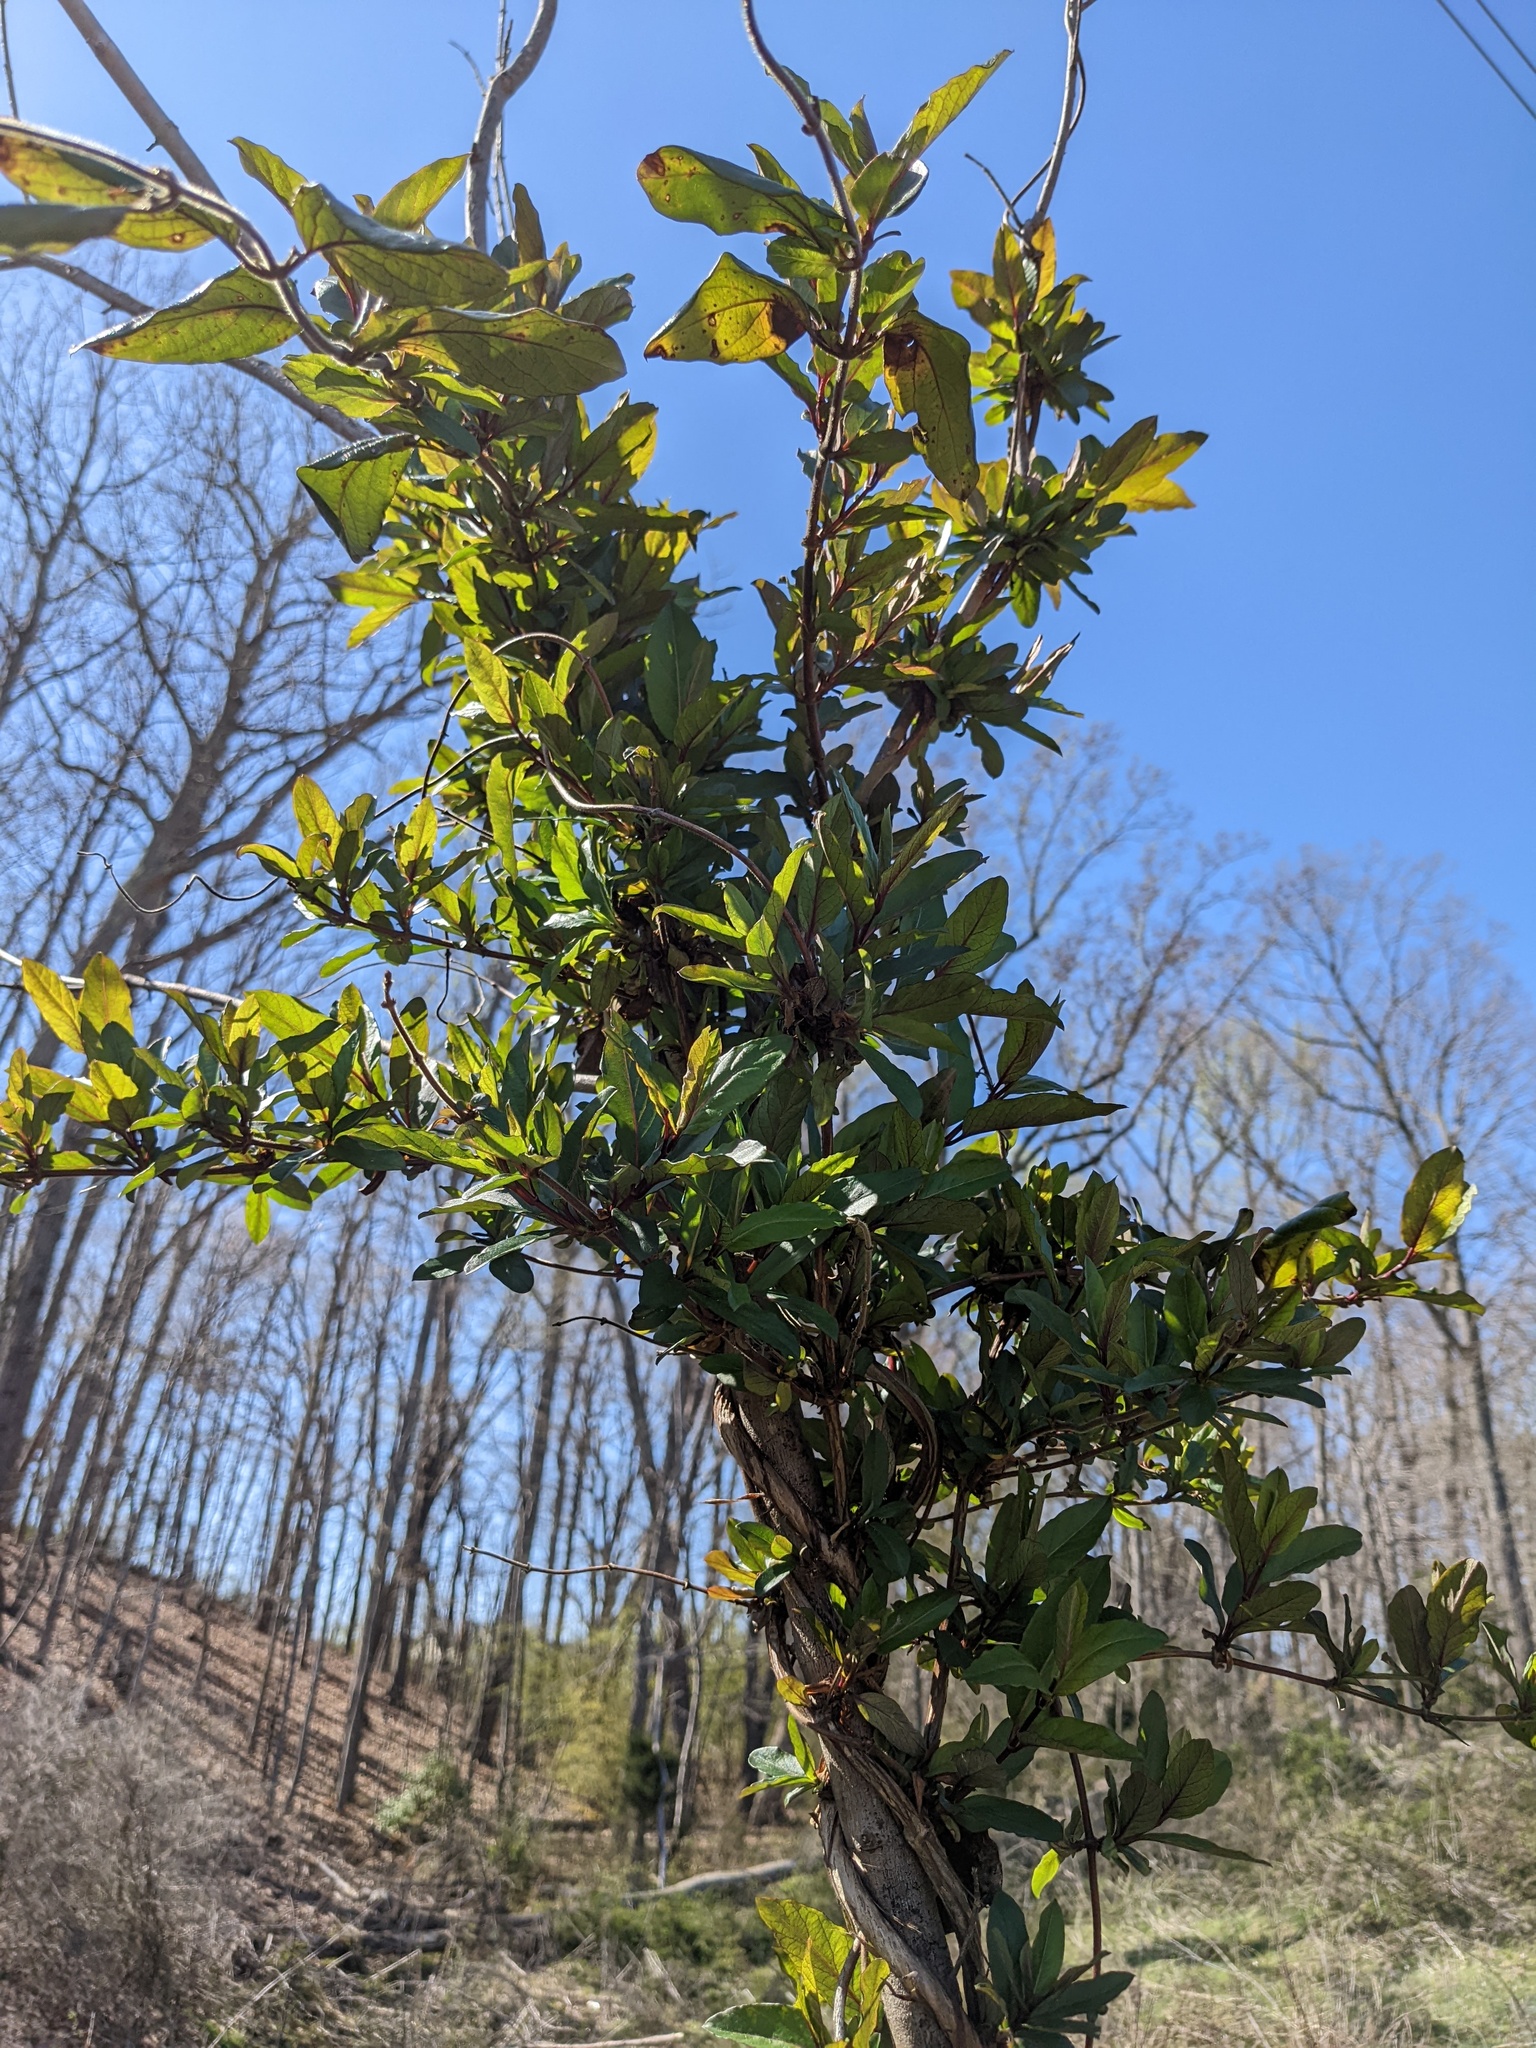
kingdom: Plantae
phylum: Tracheophyta
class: Magnoliopsida
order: Dipsacales
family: Caprifoliaceae
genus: Lonicera
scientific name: Lonicera japonica
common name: Japanese honeysuckle
